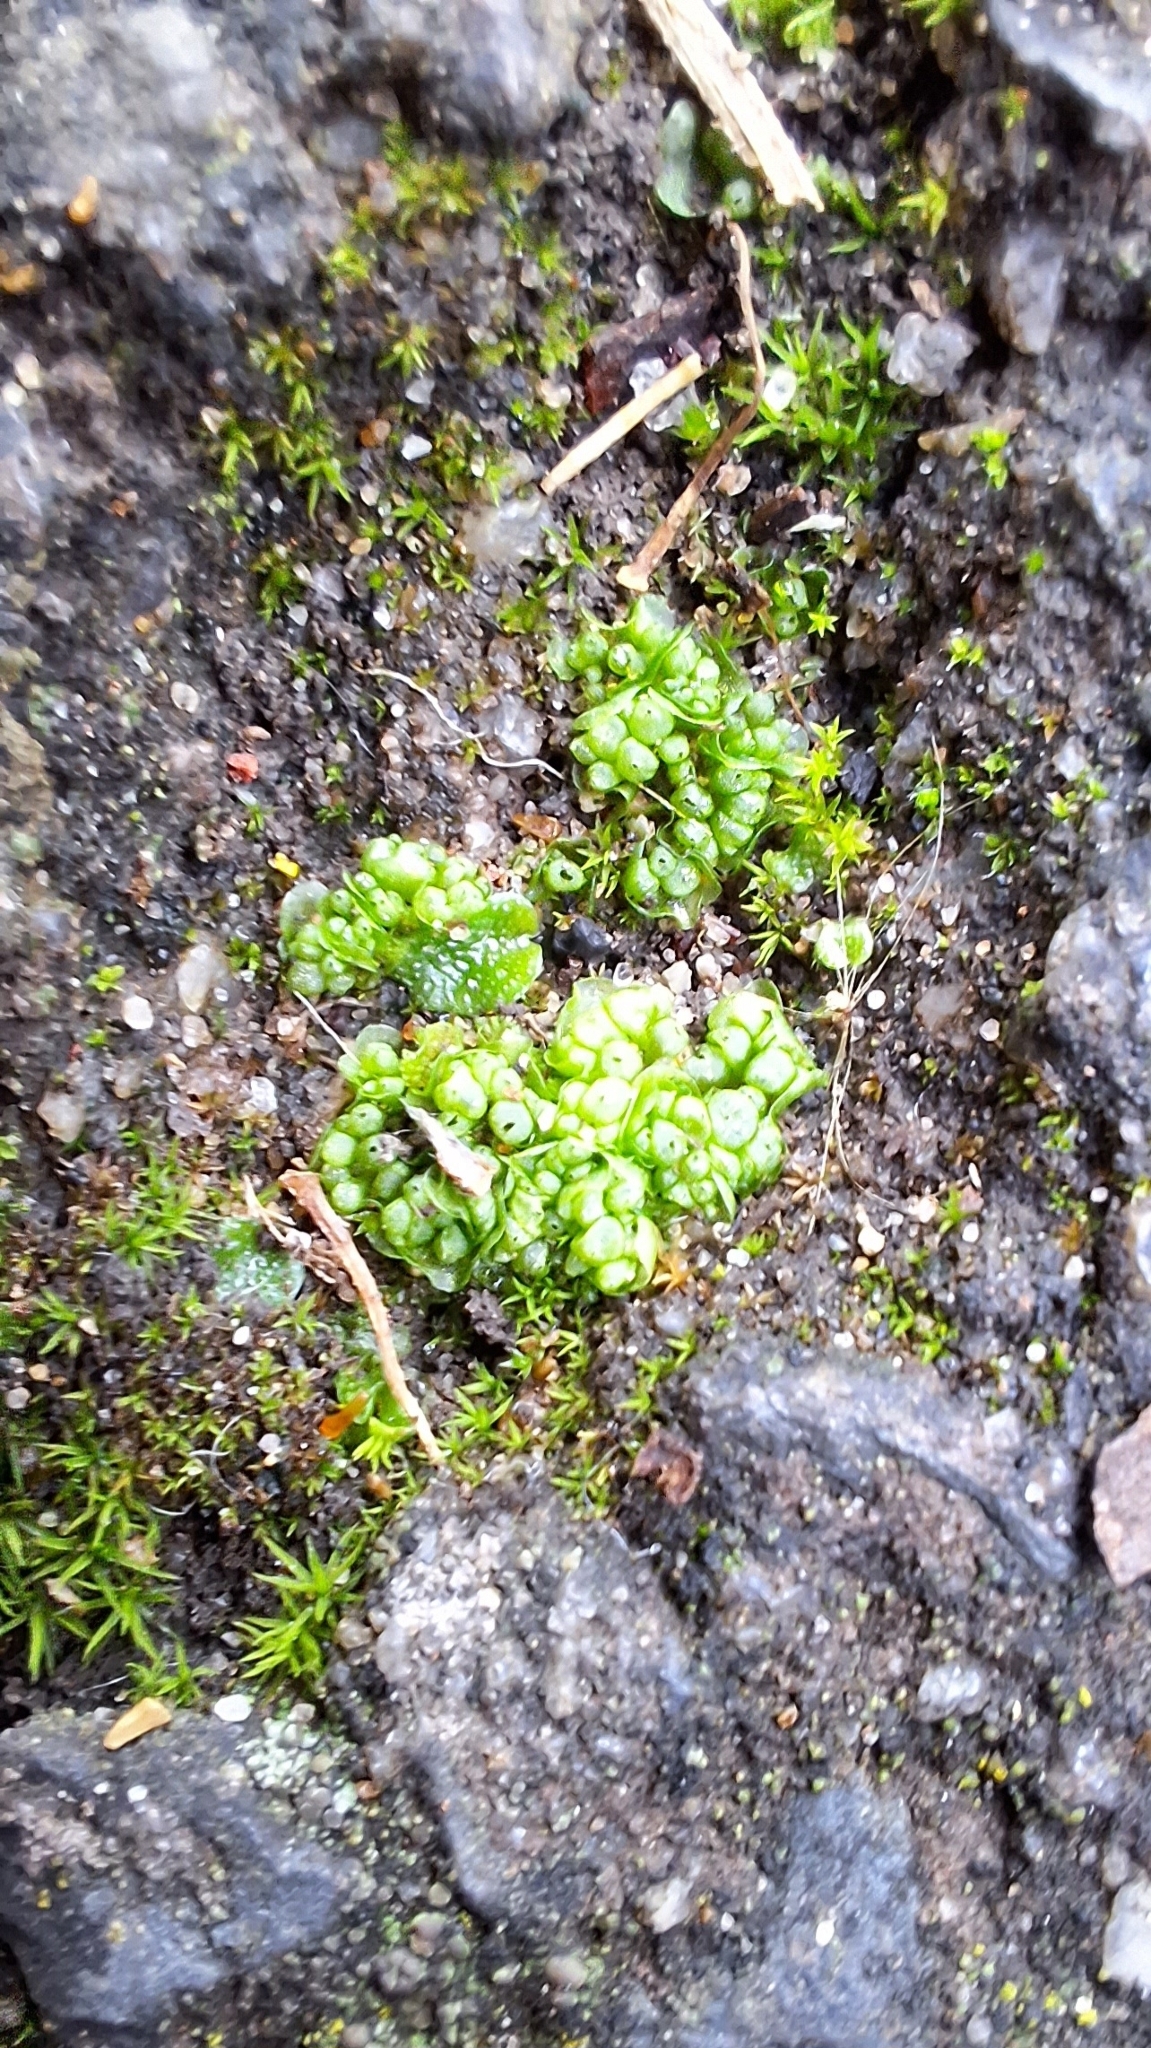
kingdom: Plantae
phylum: Marchantiophyta
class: Marchantiopsida
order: Sphaerocarpales
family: Sphaerocarpaceae
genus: Sphaerocarpos
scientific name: Sphaerocarpos texanus
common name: Texas balloonwort
